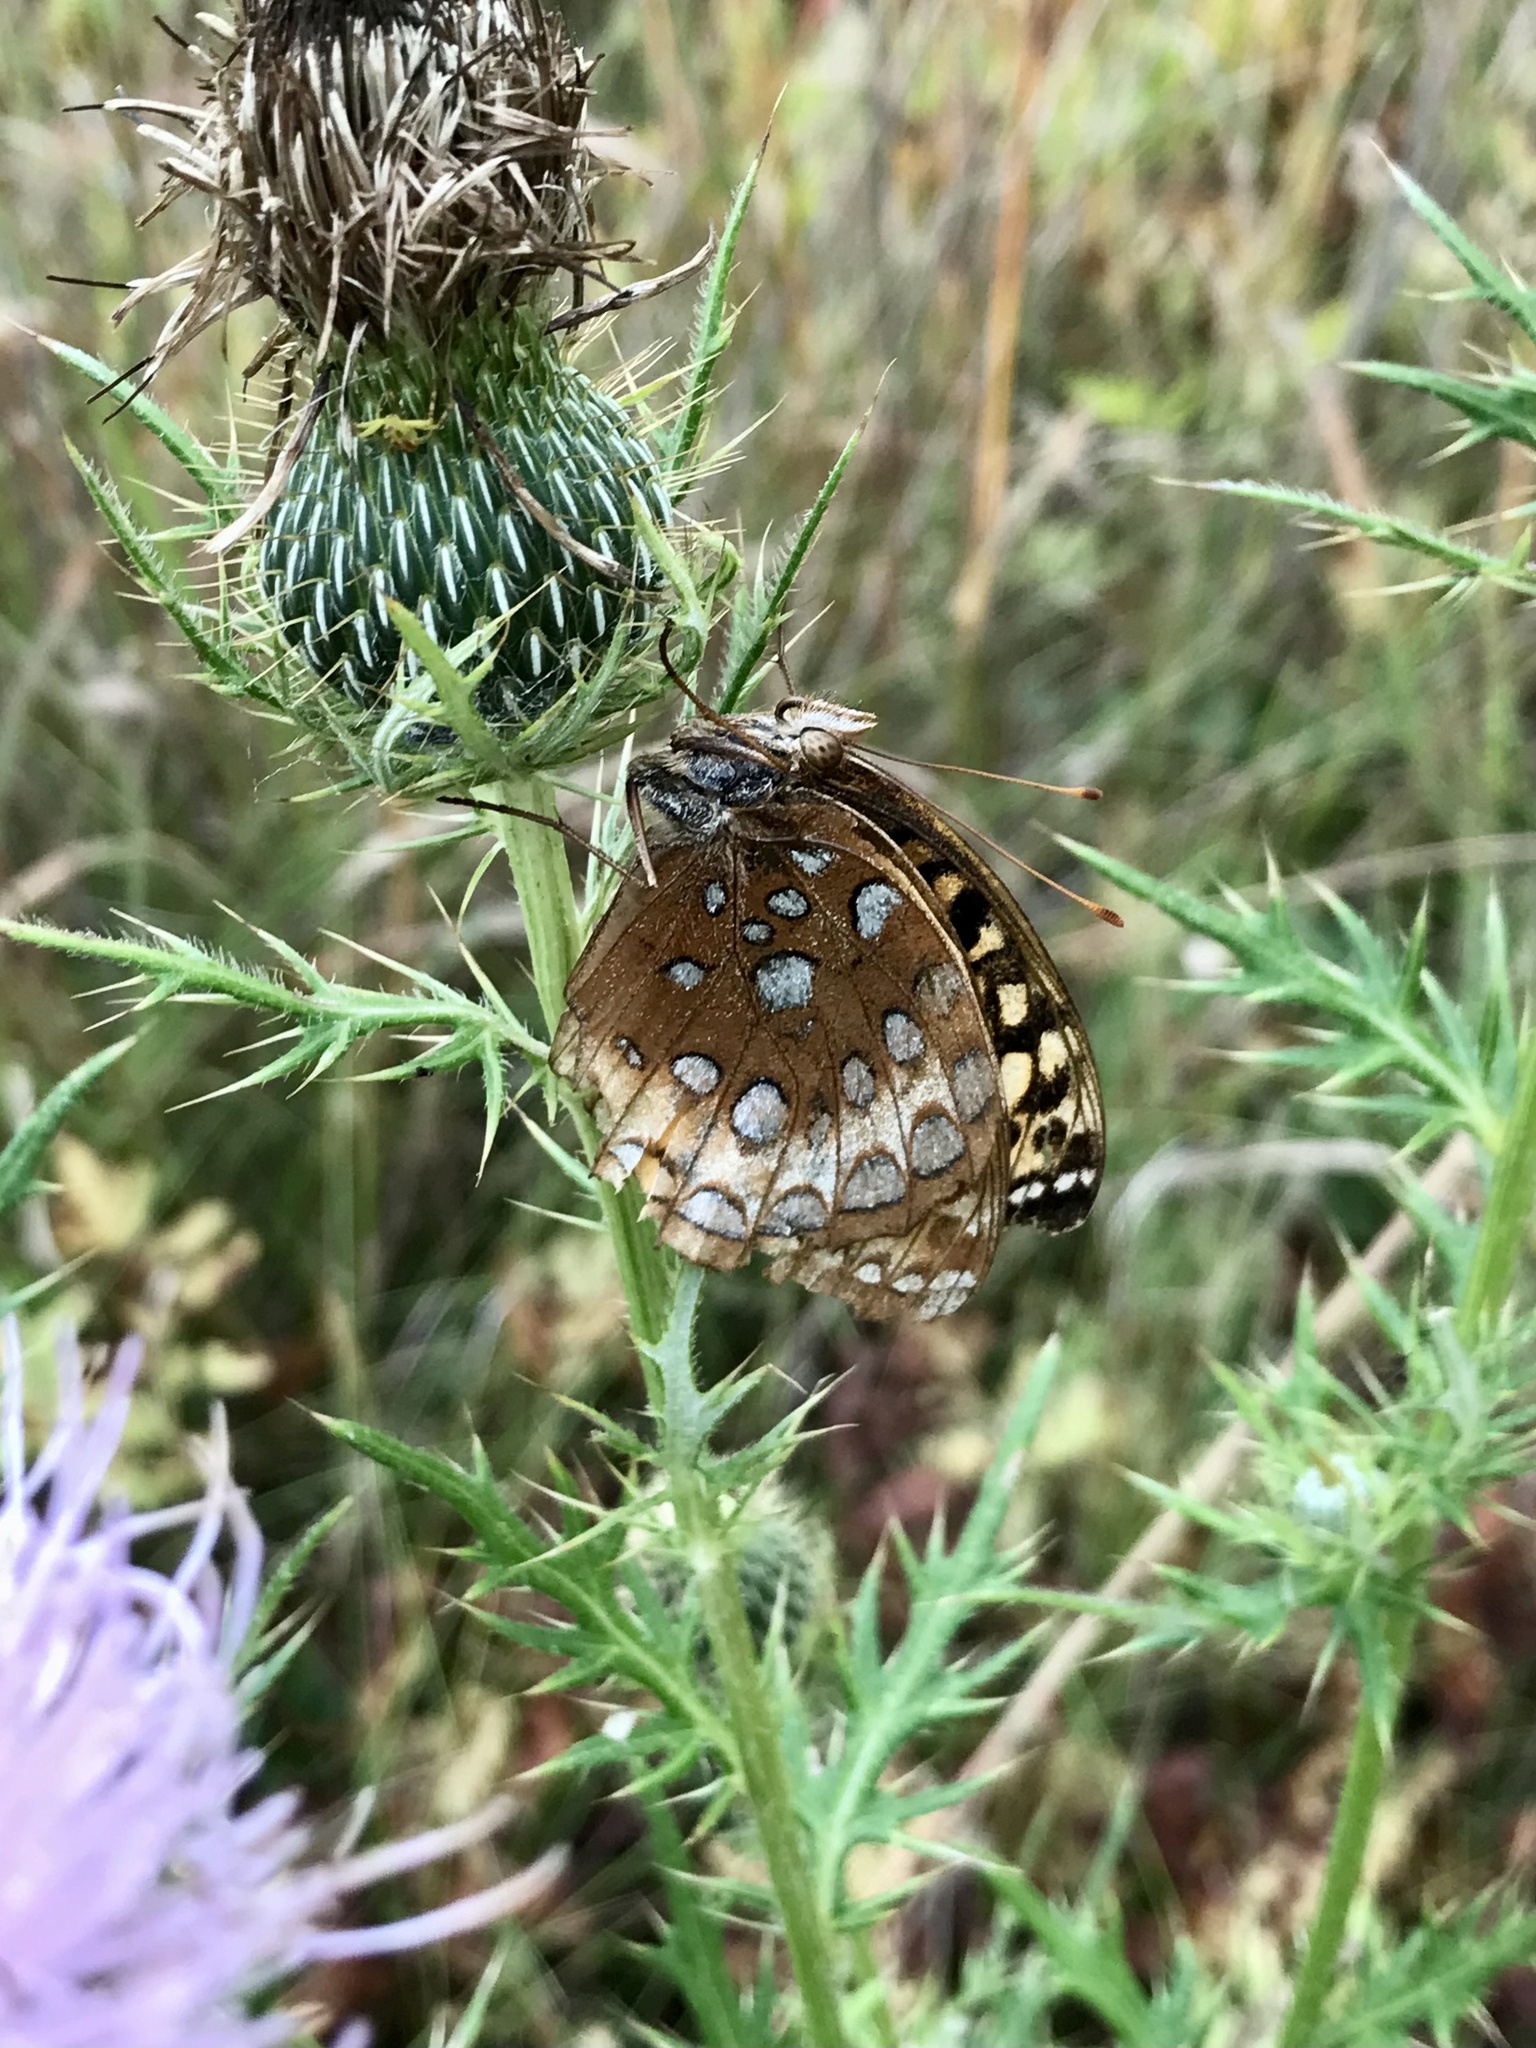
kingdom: Animalia
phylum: Arthropoda
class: Insecta
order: Lepidoptera
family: Nymphalidae
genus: Speyeria
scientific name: Speyeria cybele
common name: Great spangled fritillary
